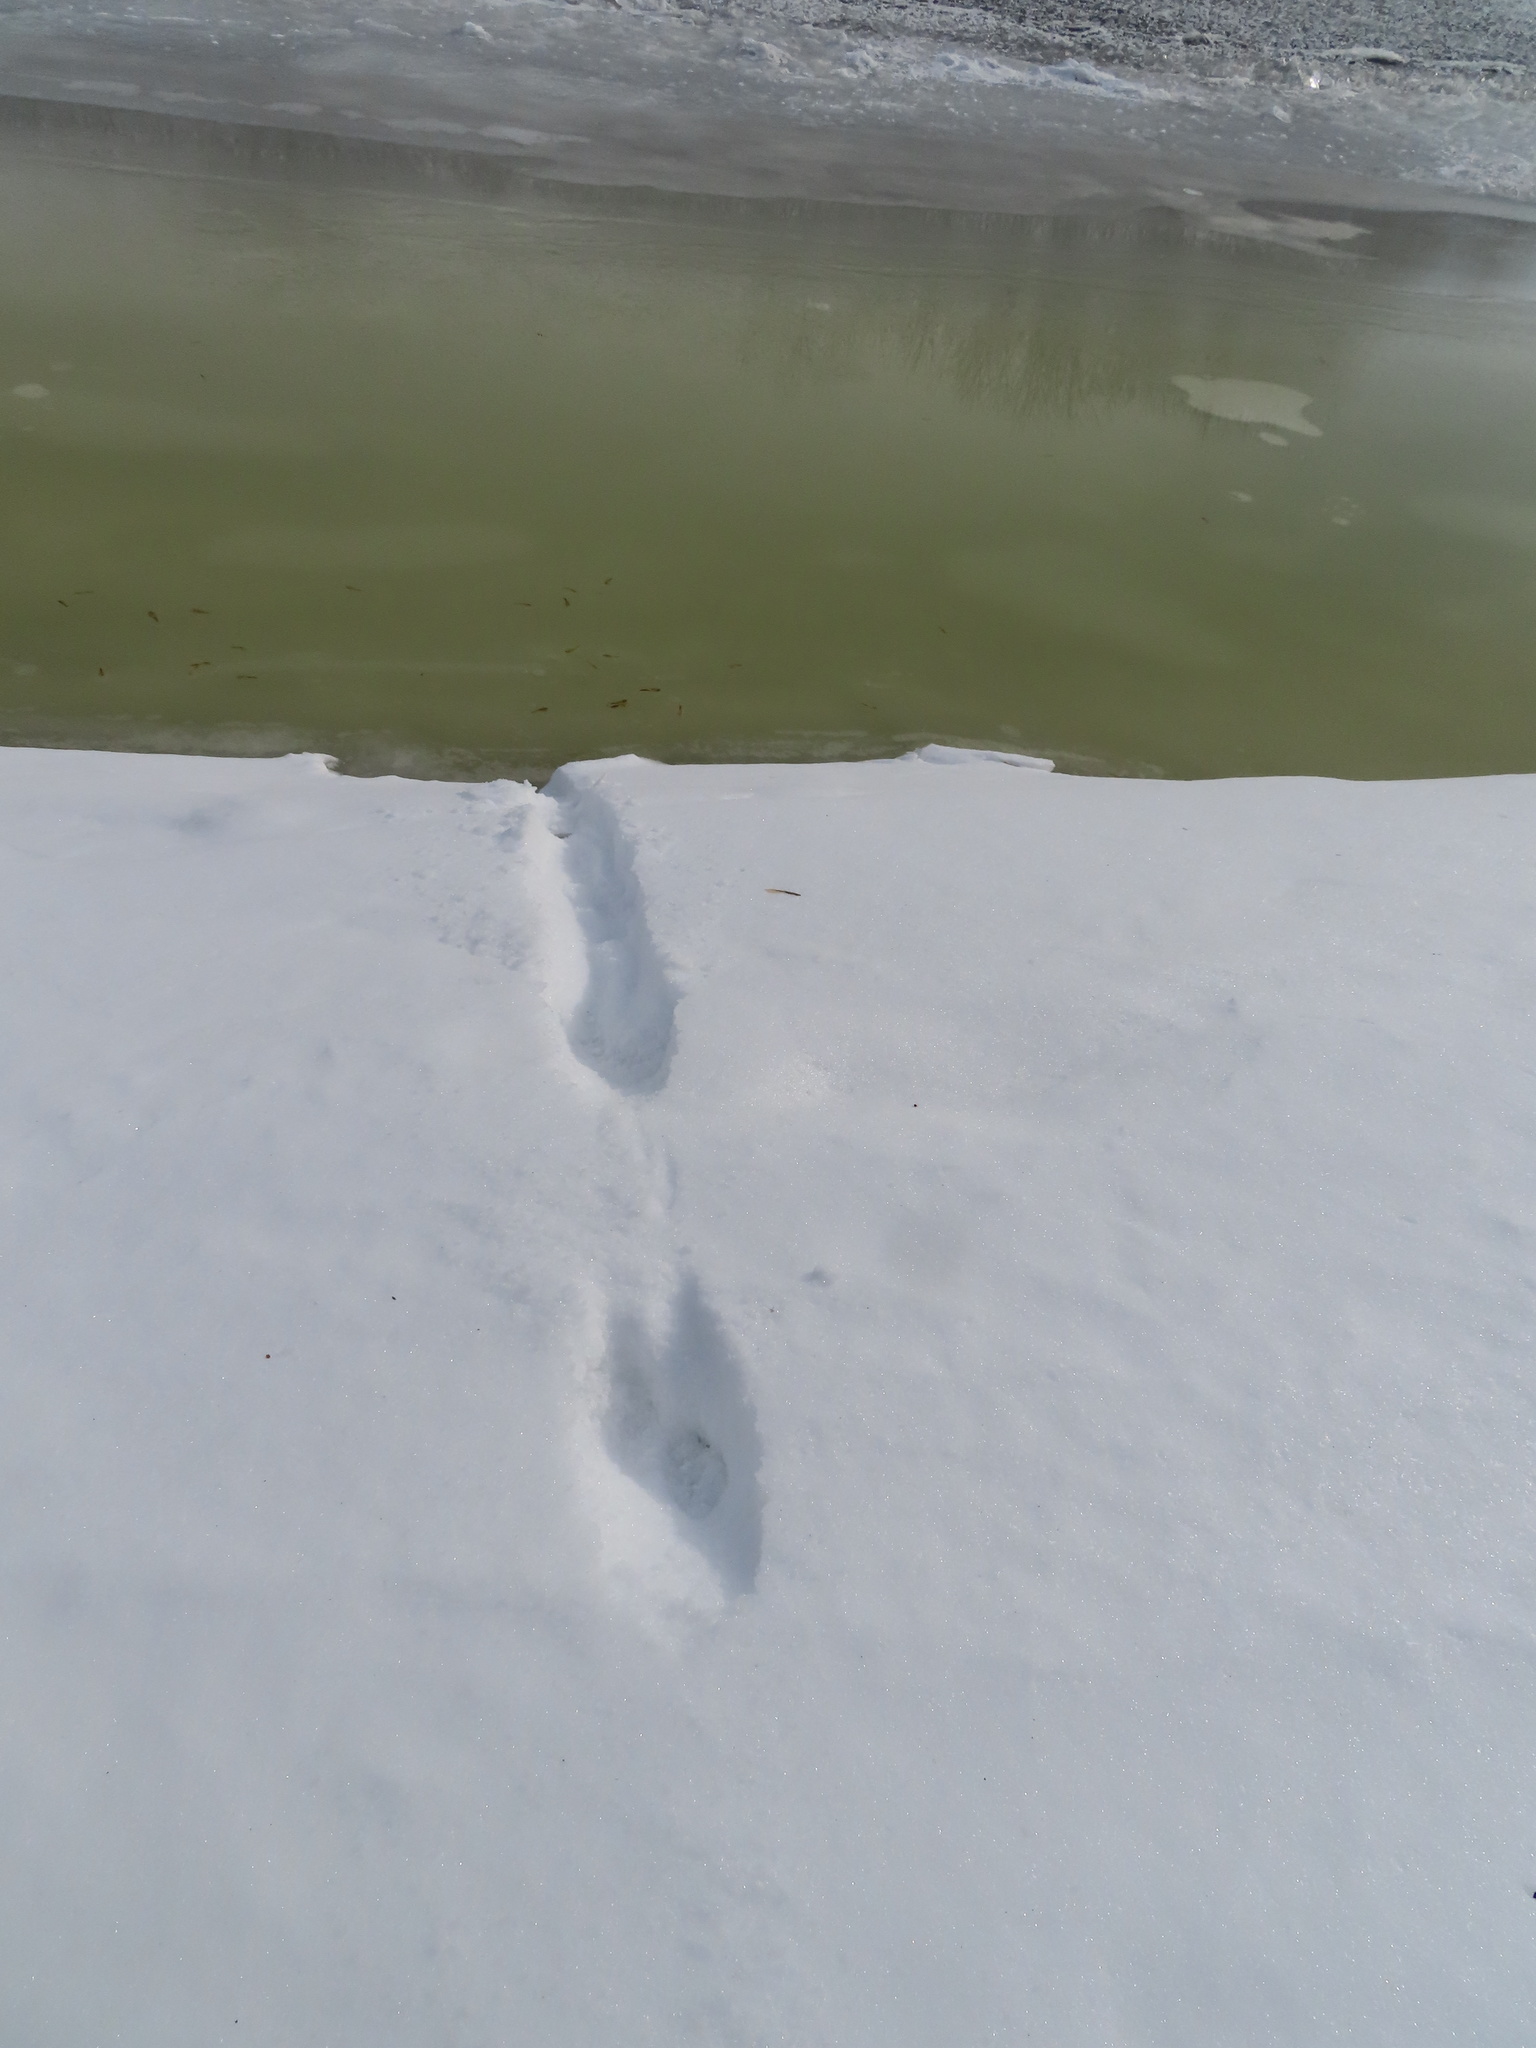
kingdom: Animalia
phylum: Chordata
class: Mammalia
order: Carnivora
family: Mustelidae
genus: Mustela
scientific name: Mustela
